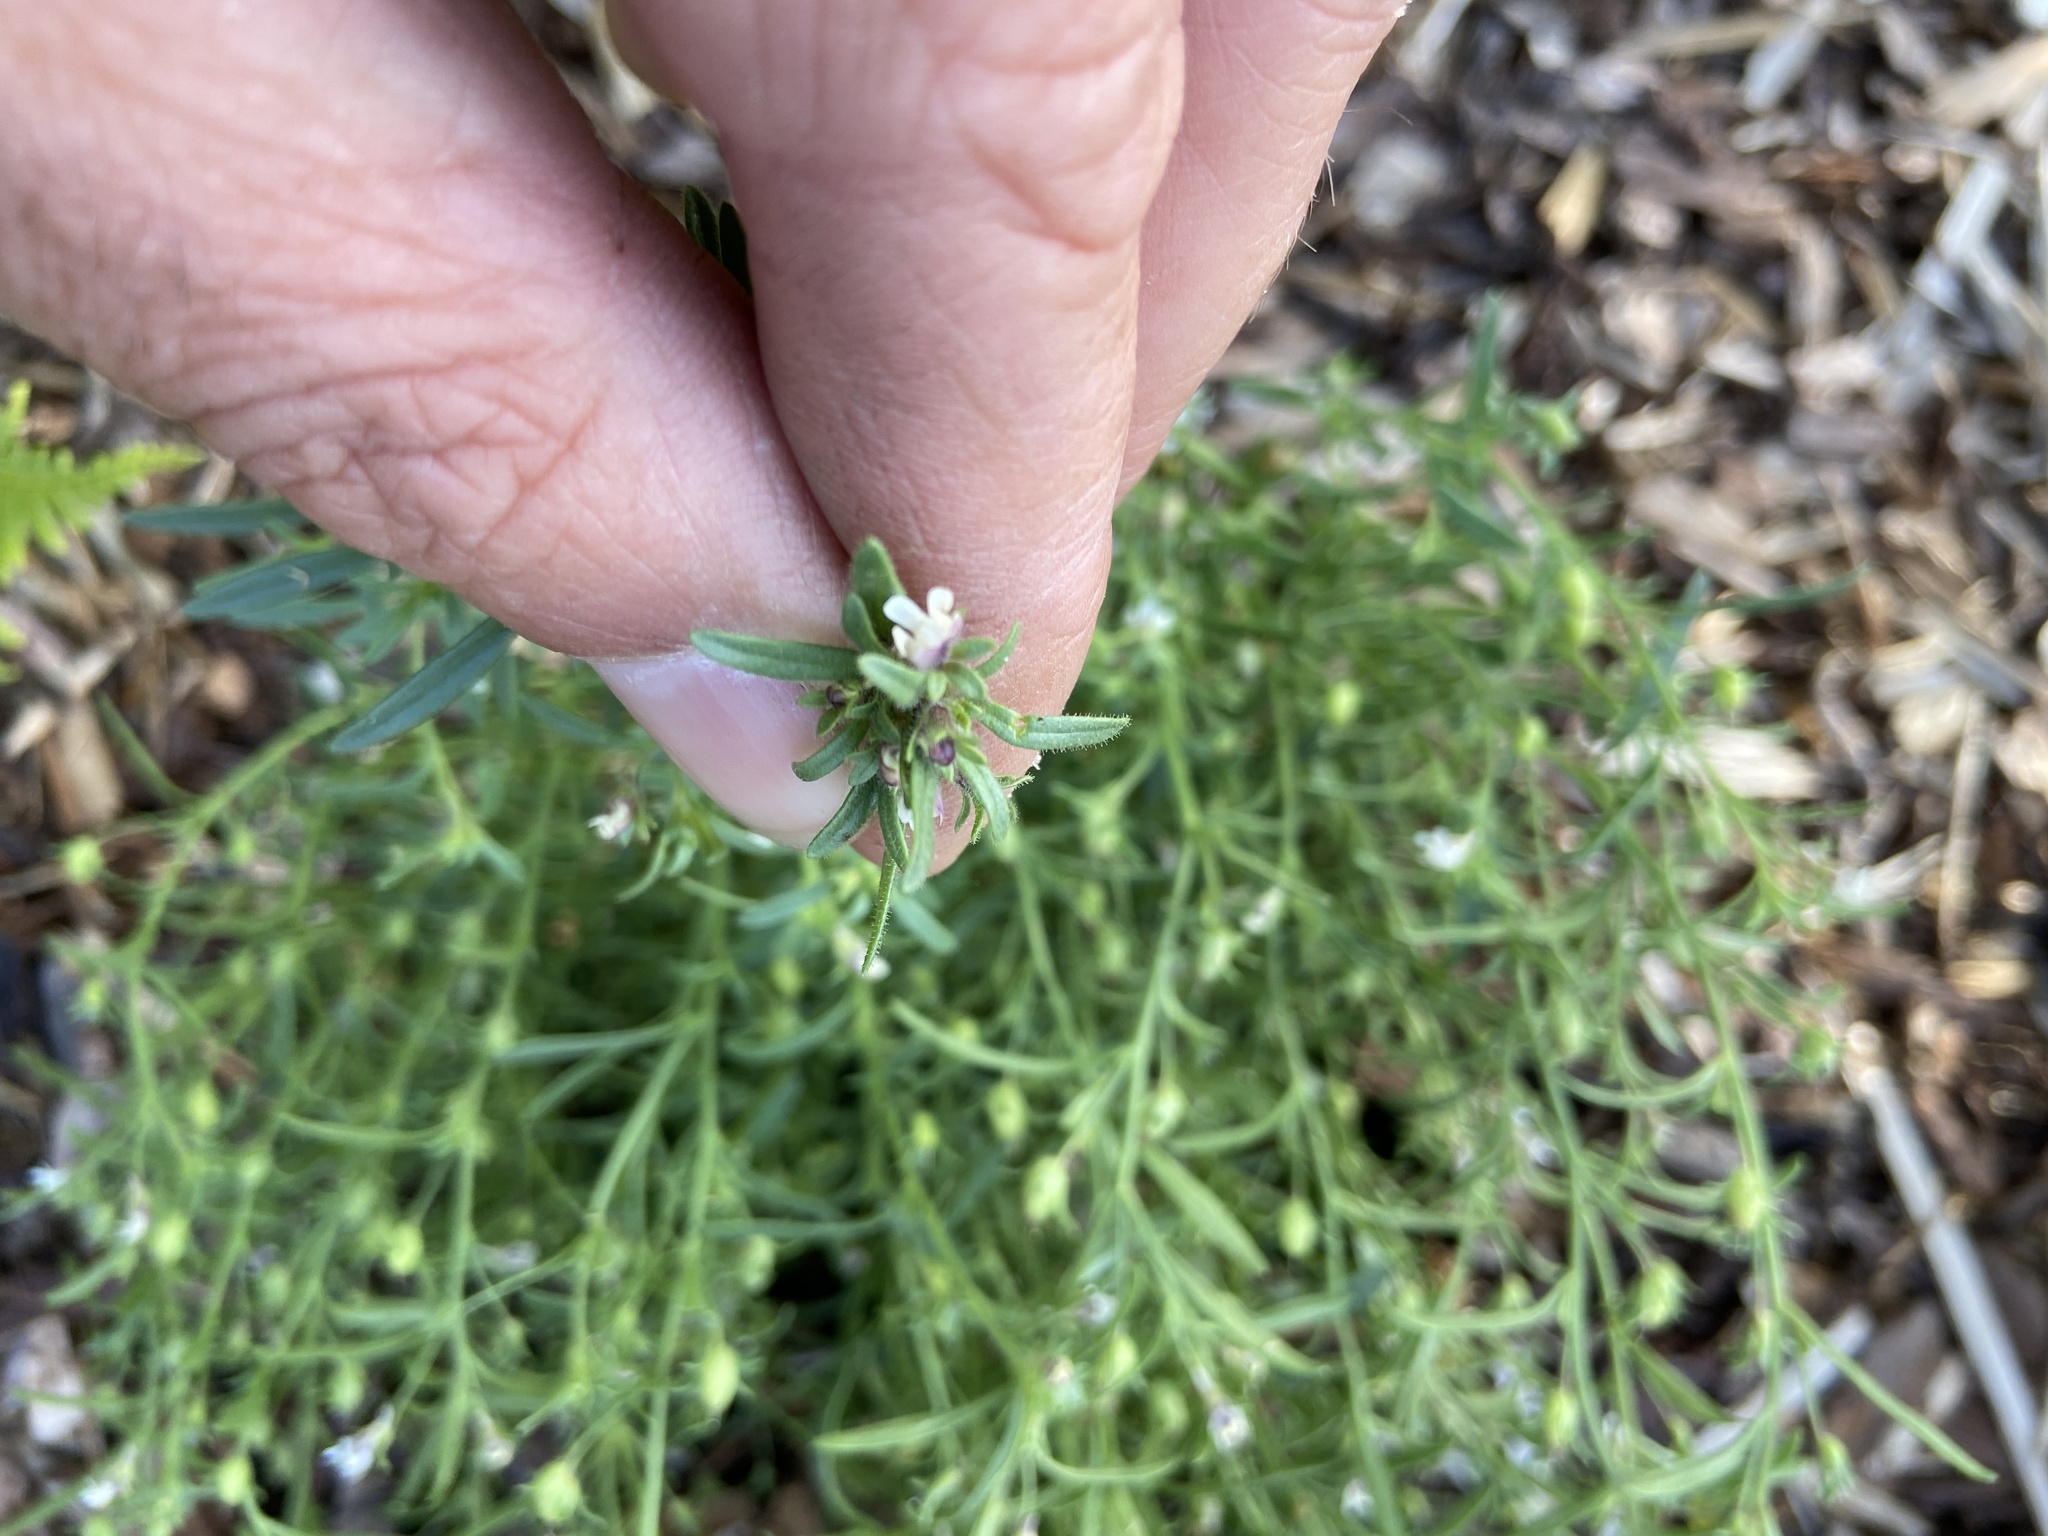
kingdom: Plantae
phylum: Tracheophyta
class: Magnoliopsida
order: Lamiales
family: Plantaginaceae
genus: Chaenorhinum
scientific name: Chaenorhinum minus
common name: Dwarf snapdragon
